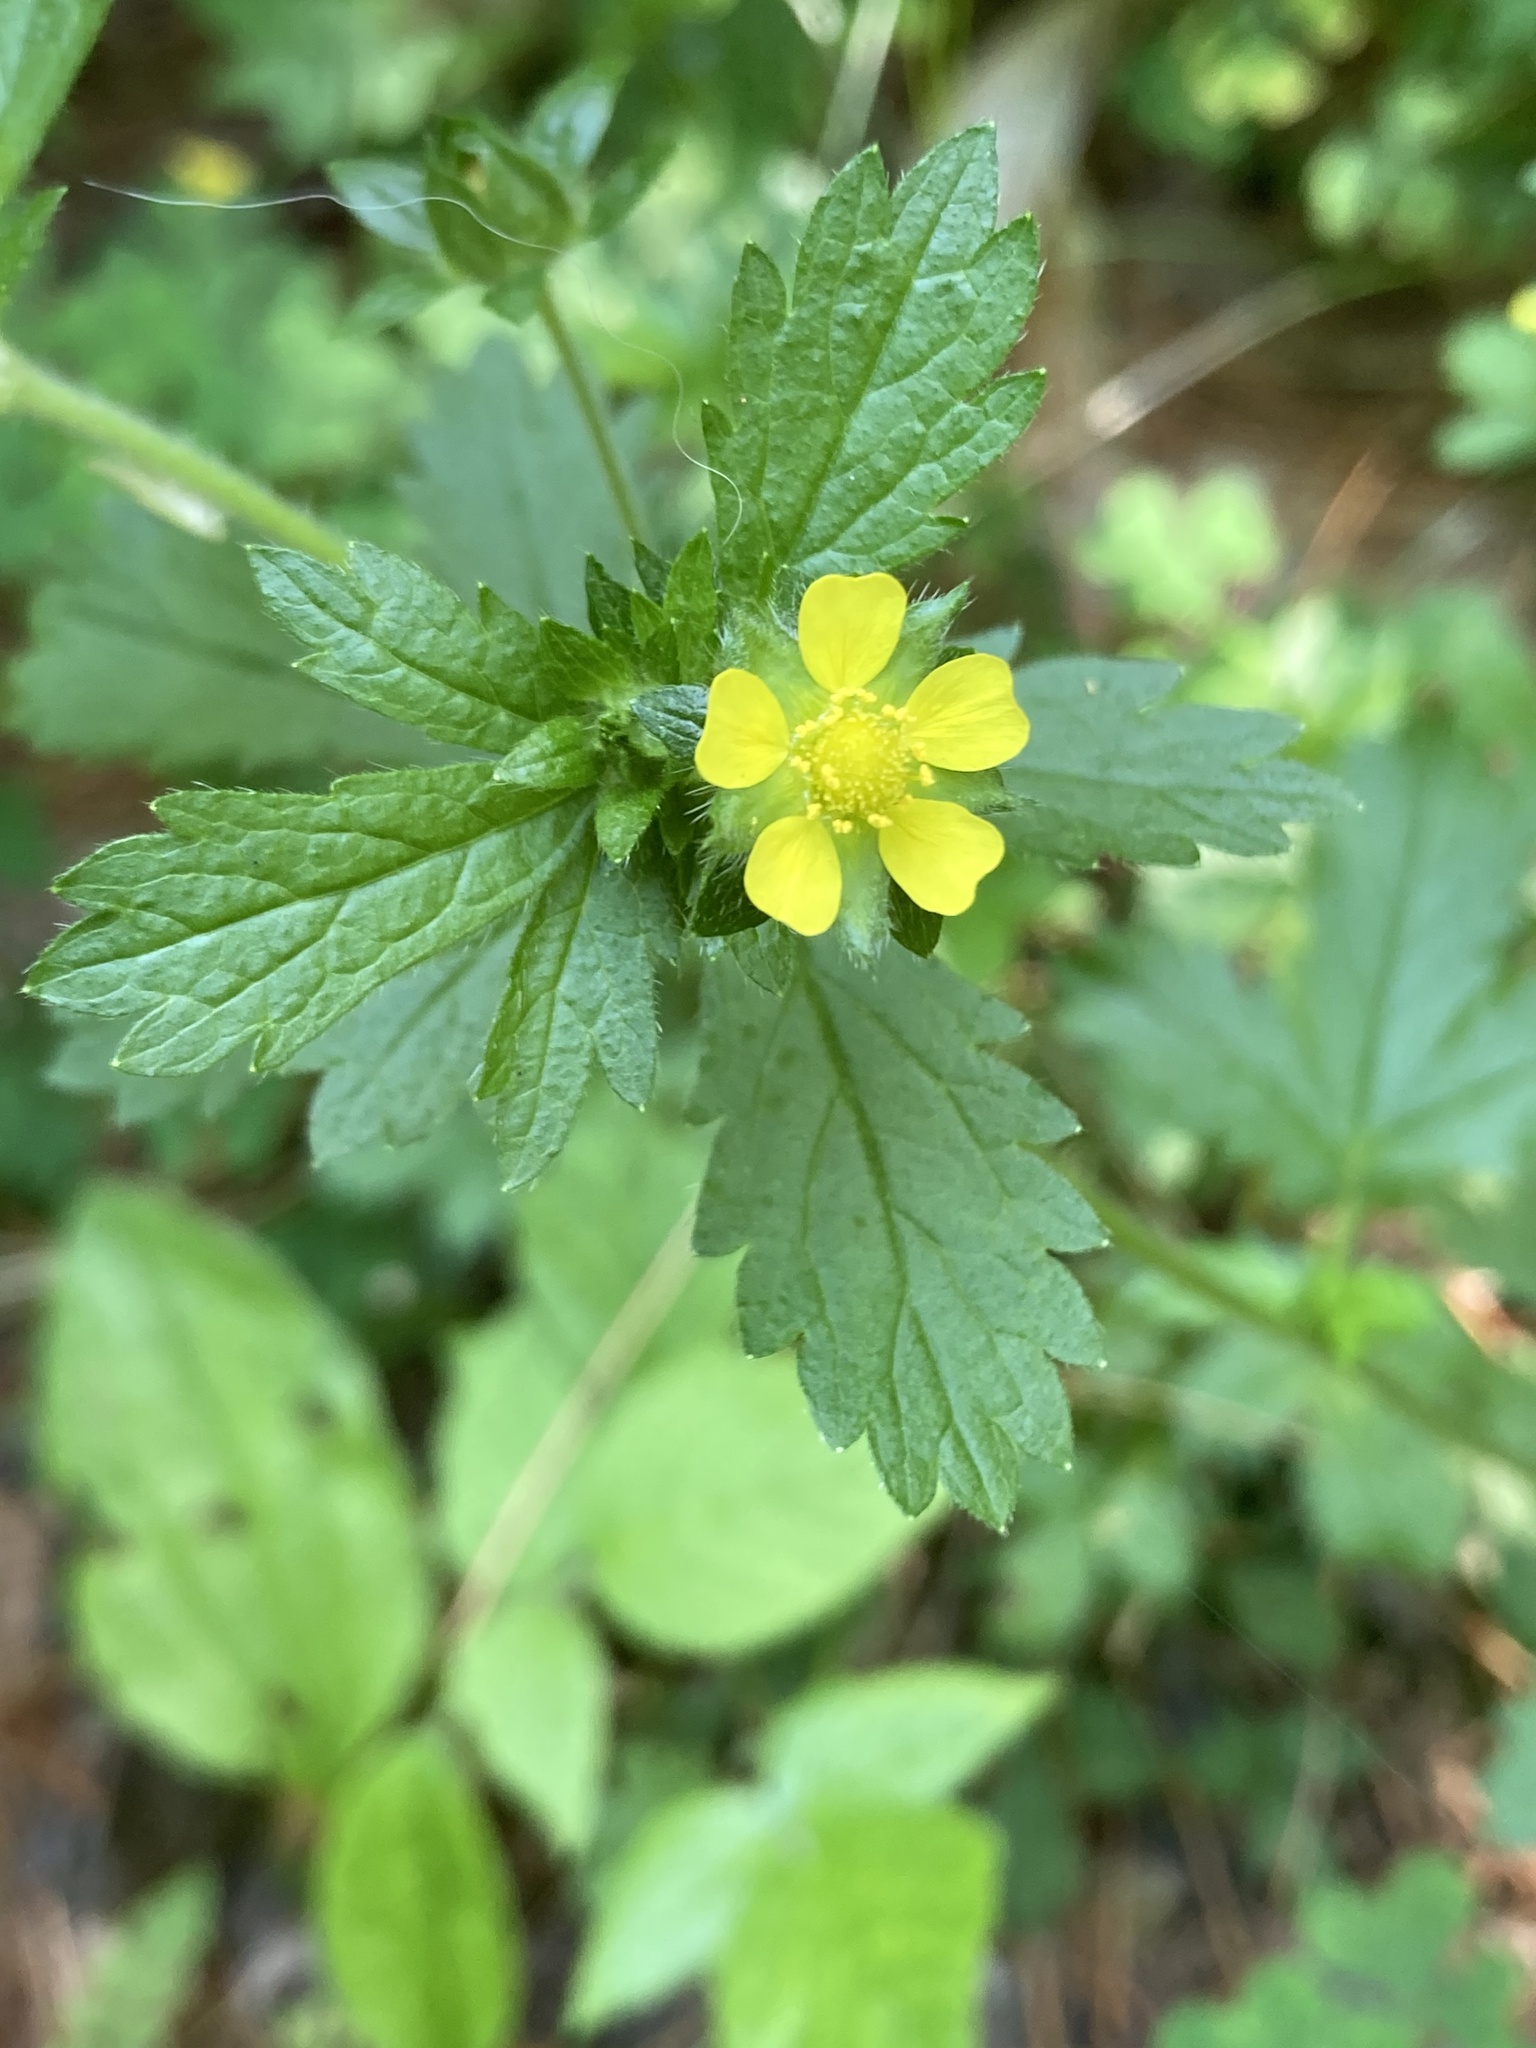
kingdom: Plantae
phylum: Tracheophyta
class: Magnoliopsida
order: Rosales
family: Rosaceae
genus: Potentilla
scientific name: Potentilla norvegica
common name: Ternate-leaved cinquefoil
